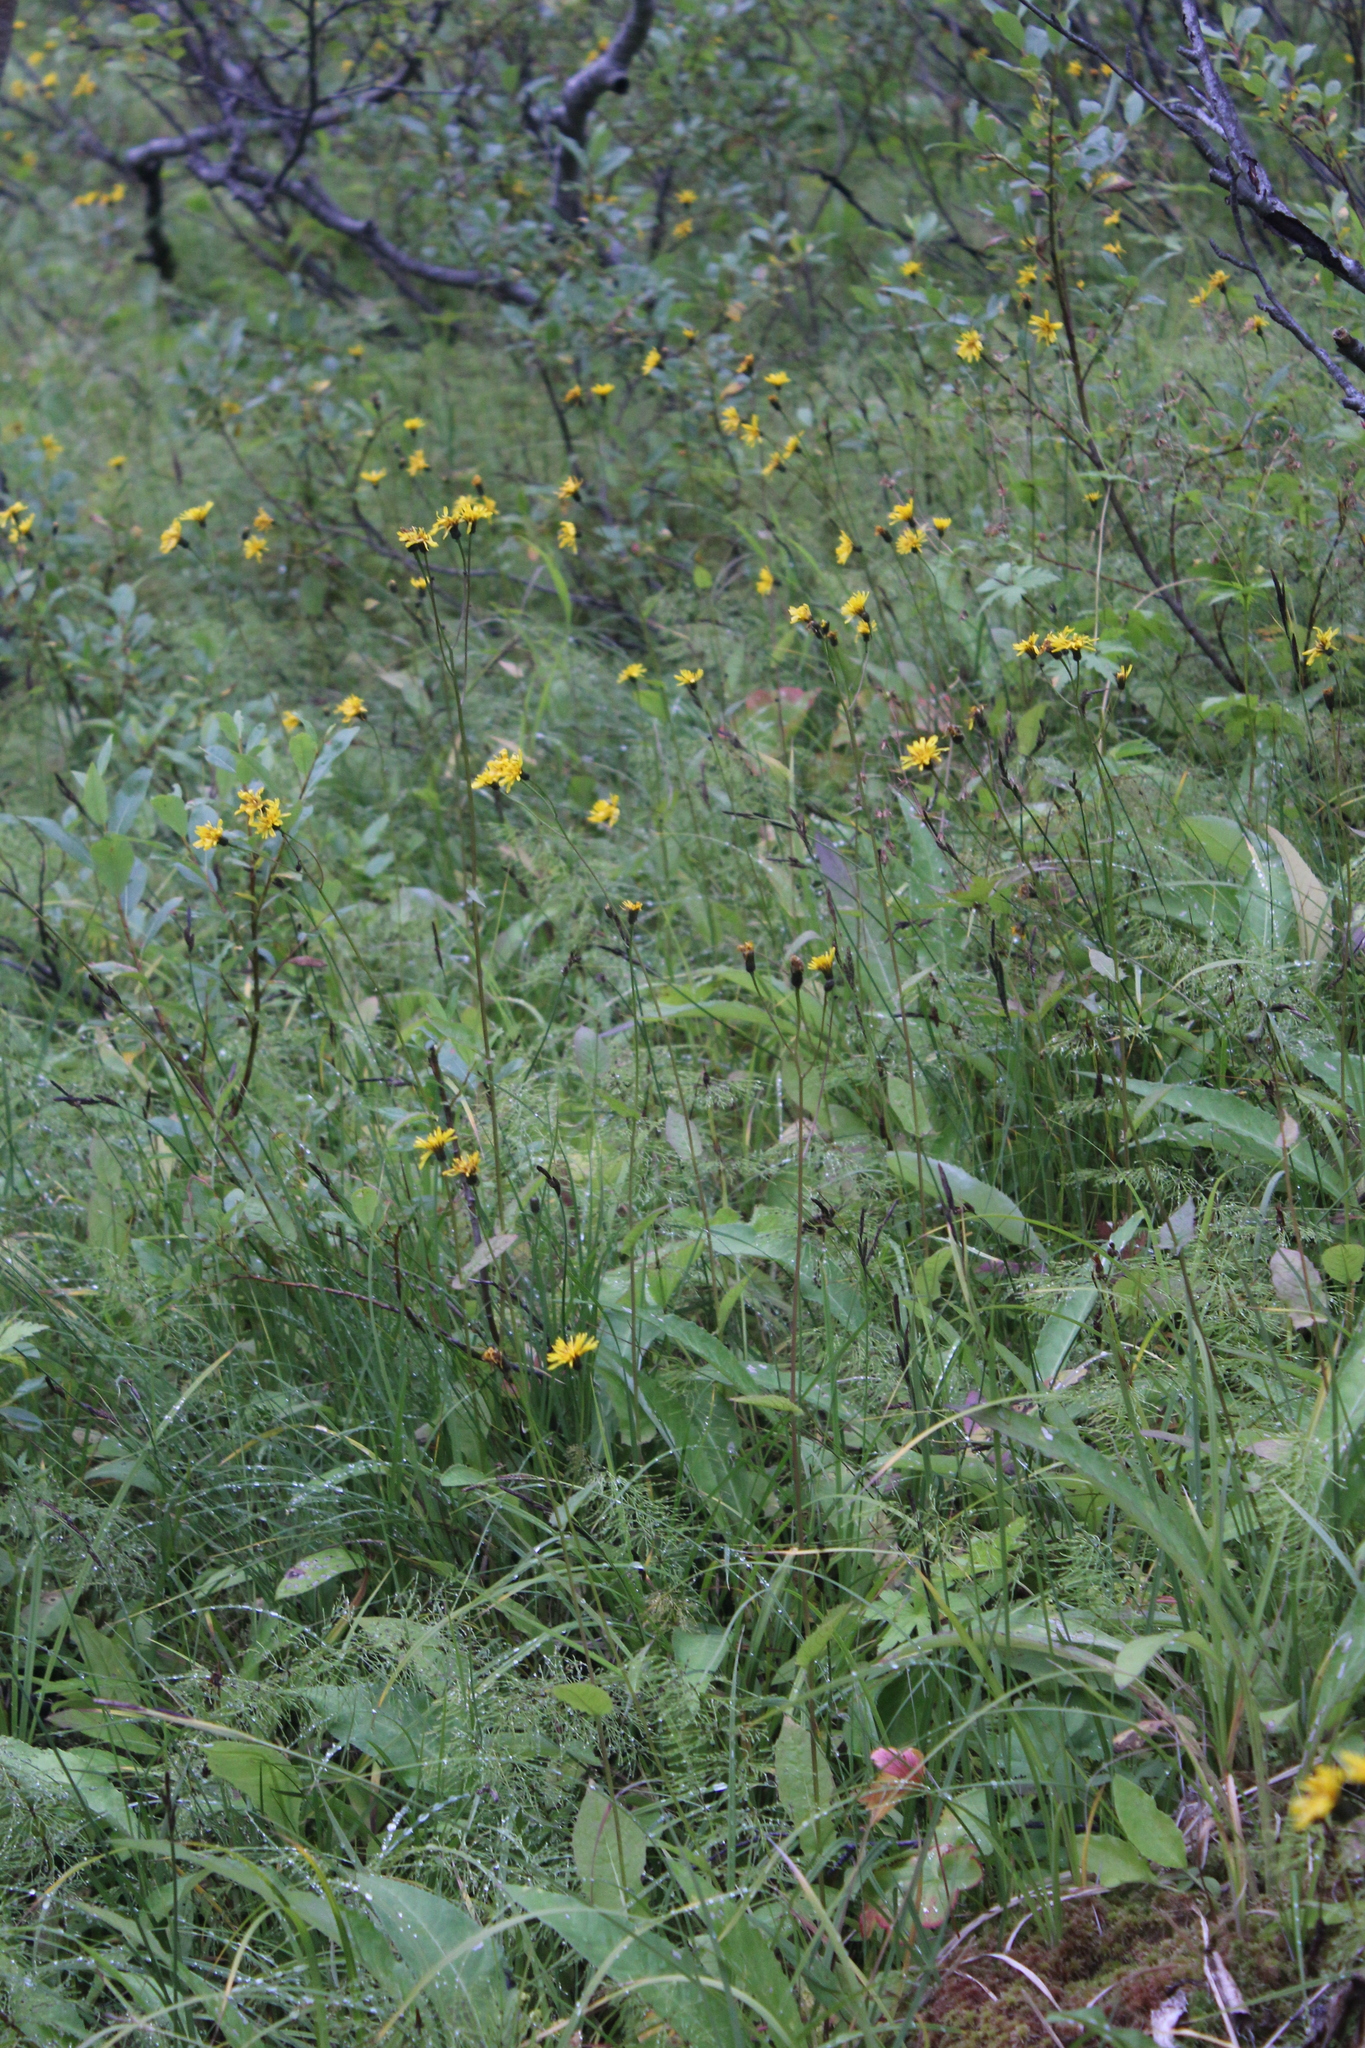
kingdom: Plantae
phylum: Tracheophyta
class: Magnoliopsida
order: Asterales
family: Asteraceae
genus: Crepis
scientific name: Crepis paludosa
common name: Marsh hawk's-beard
